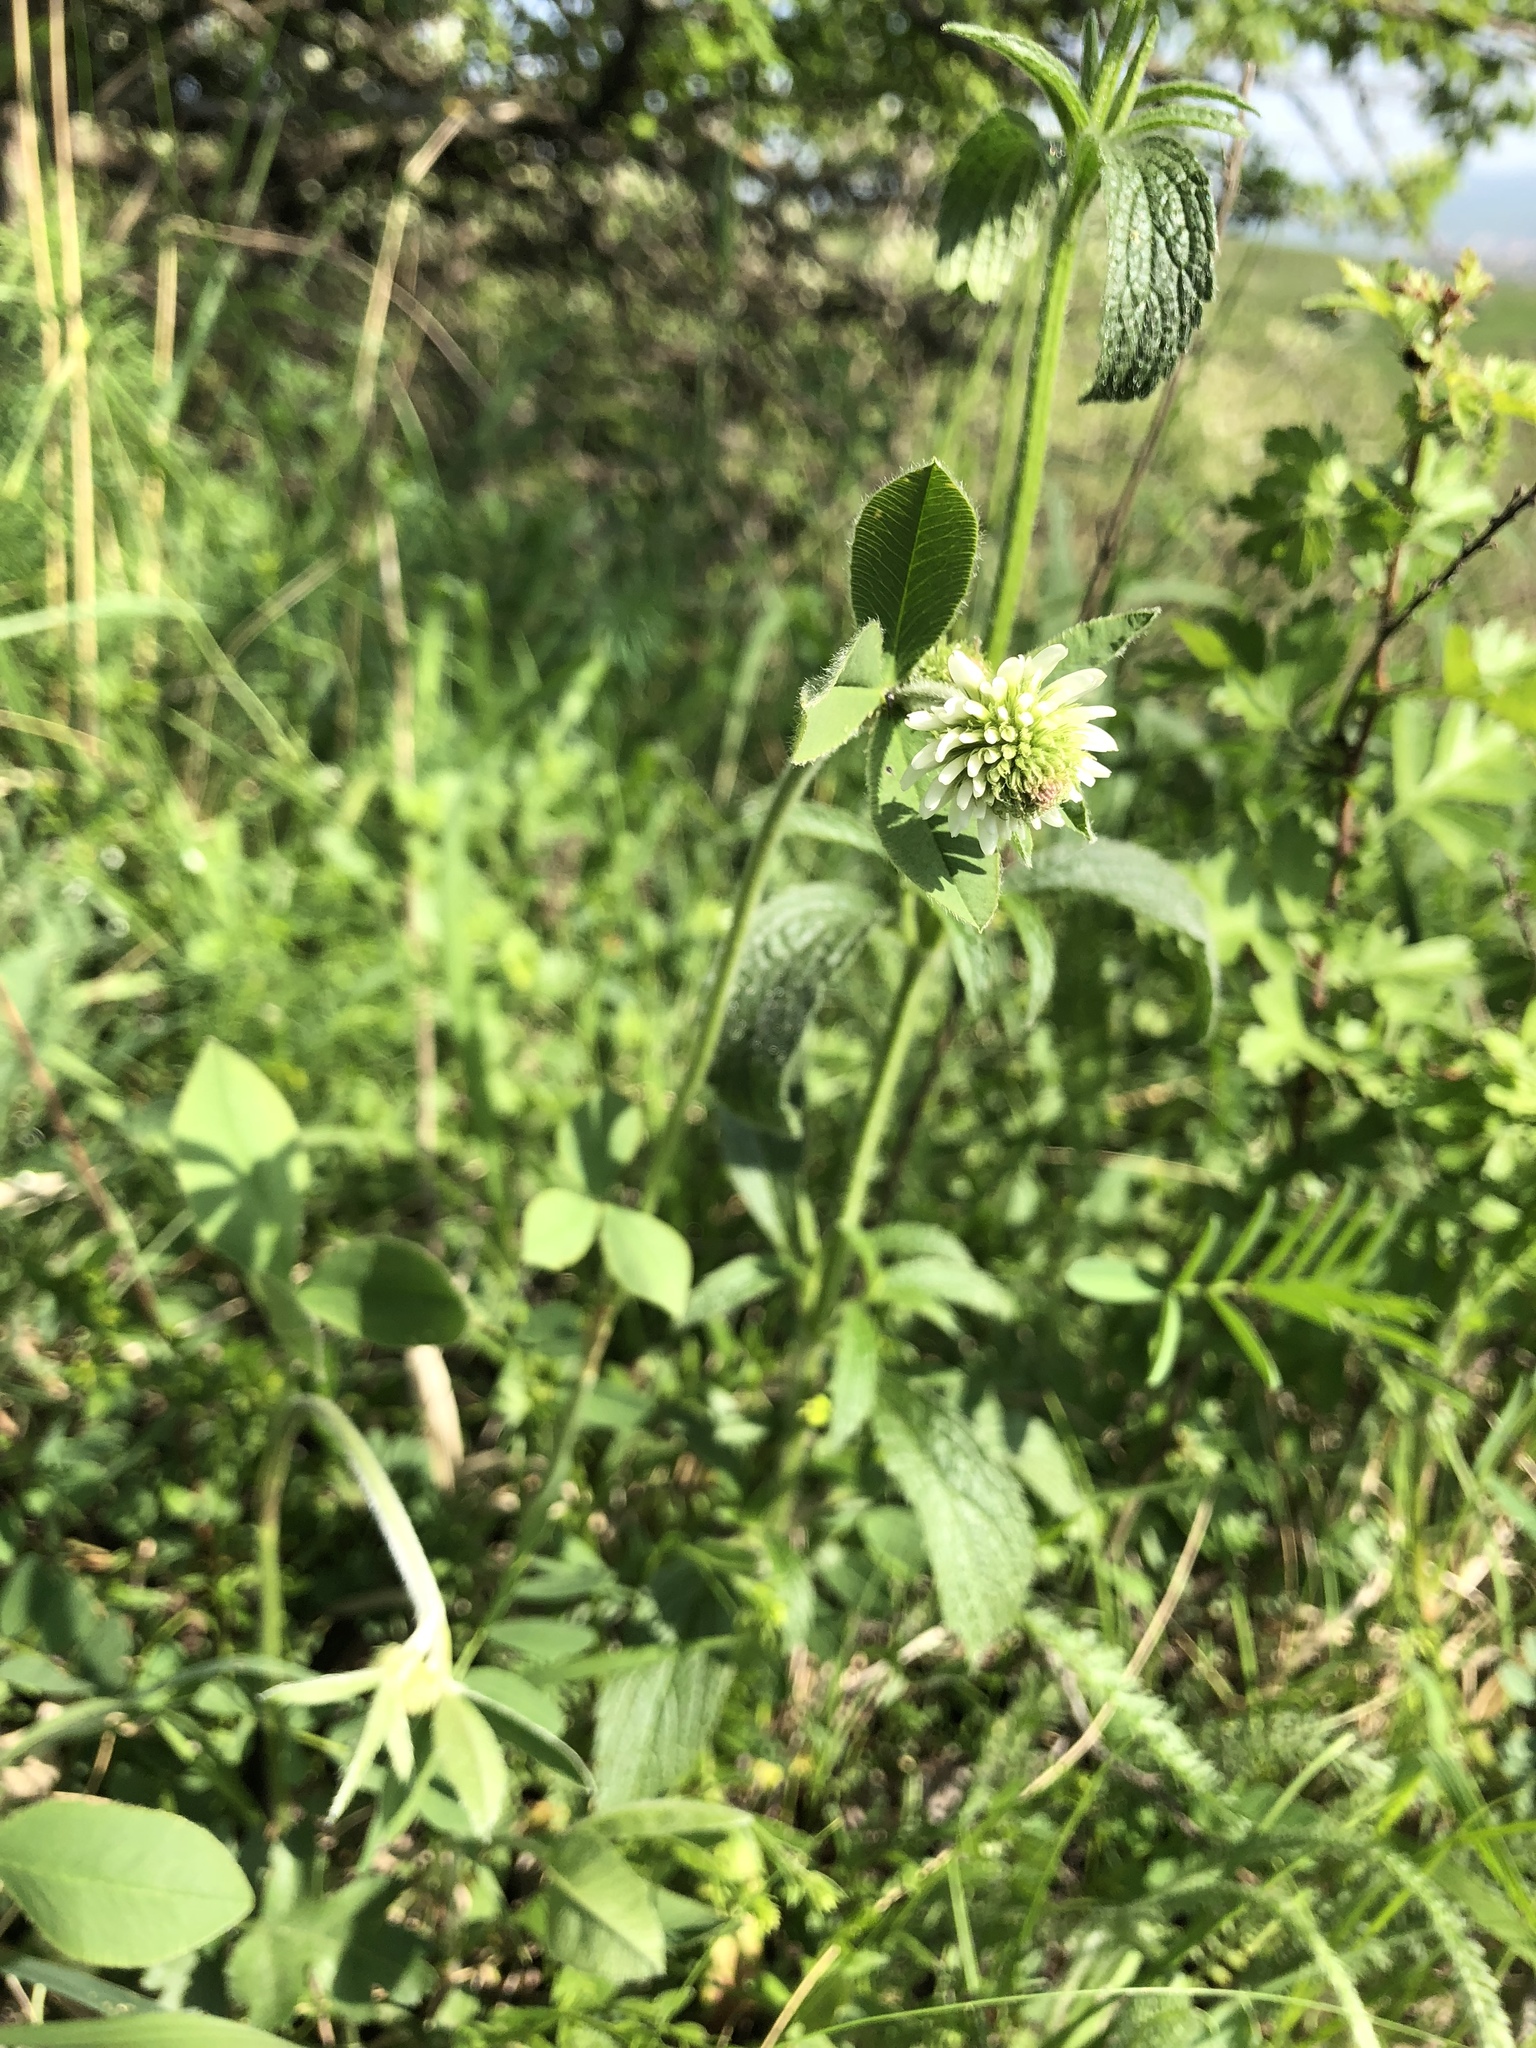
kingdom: Plantae
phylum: Tracheophyta
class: Magnoliopsida
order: Fabales
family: Fabaceae
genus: Trifolium
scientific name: Trifolium montanum
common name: Mountain clover
